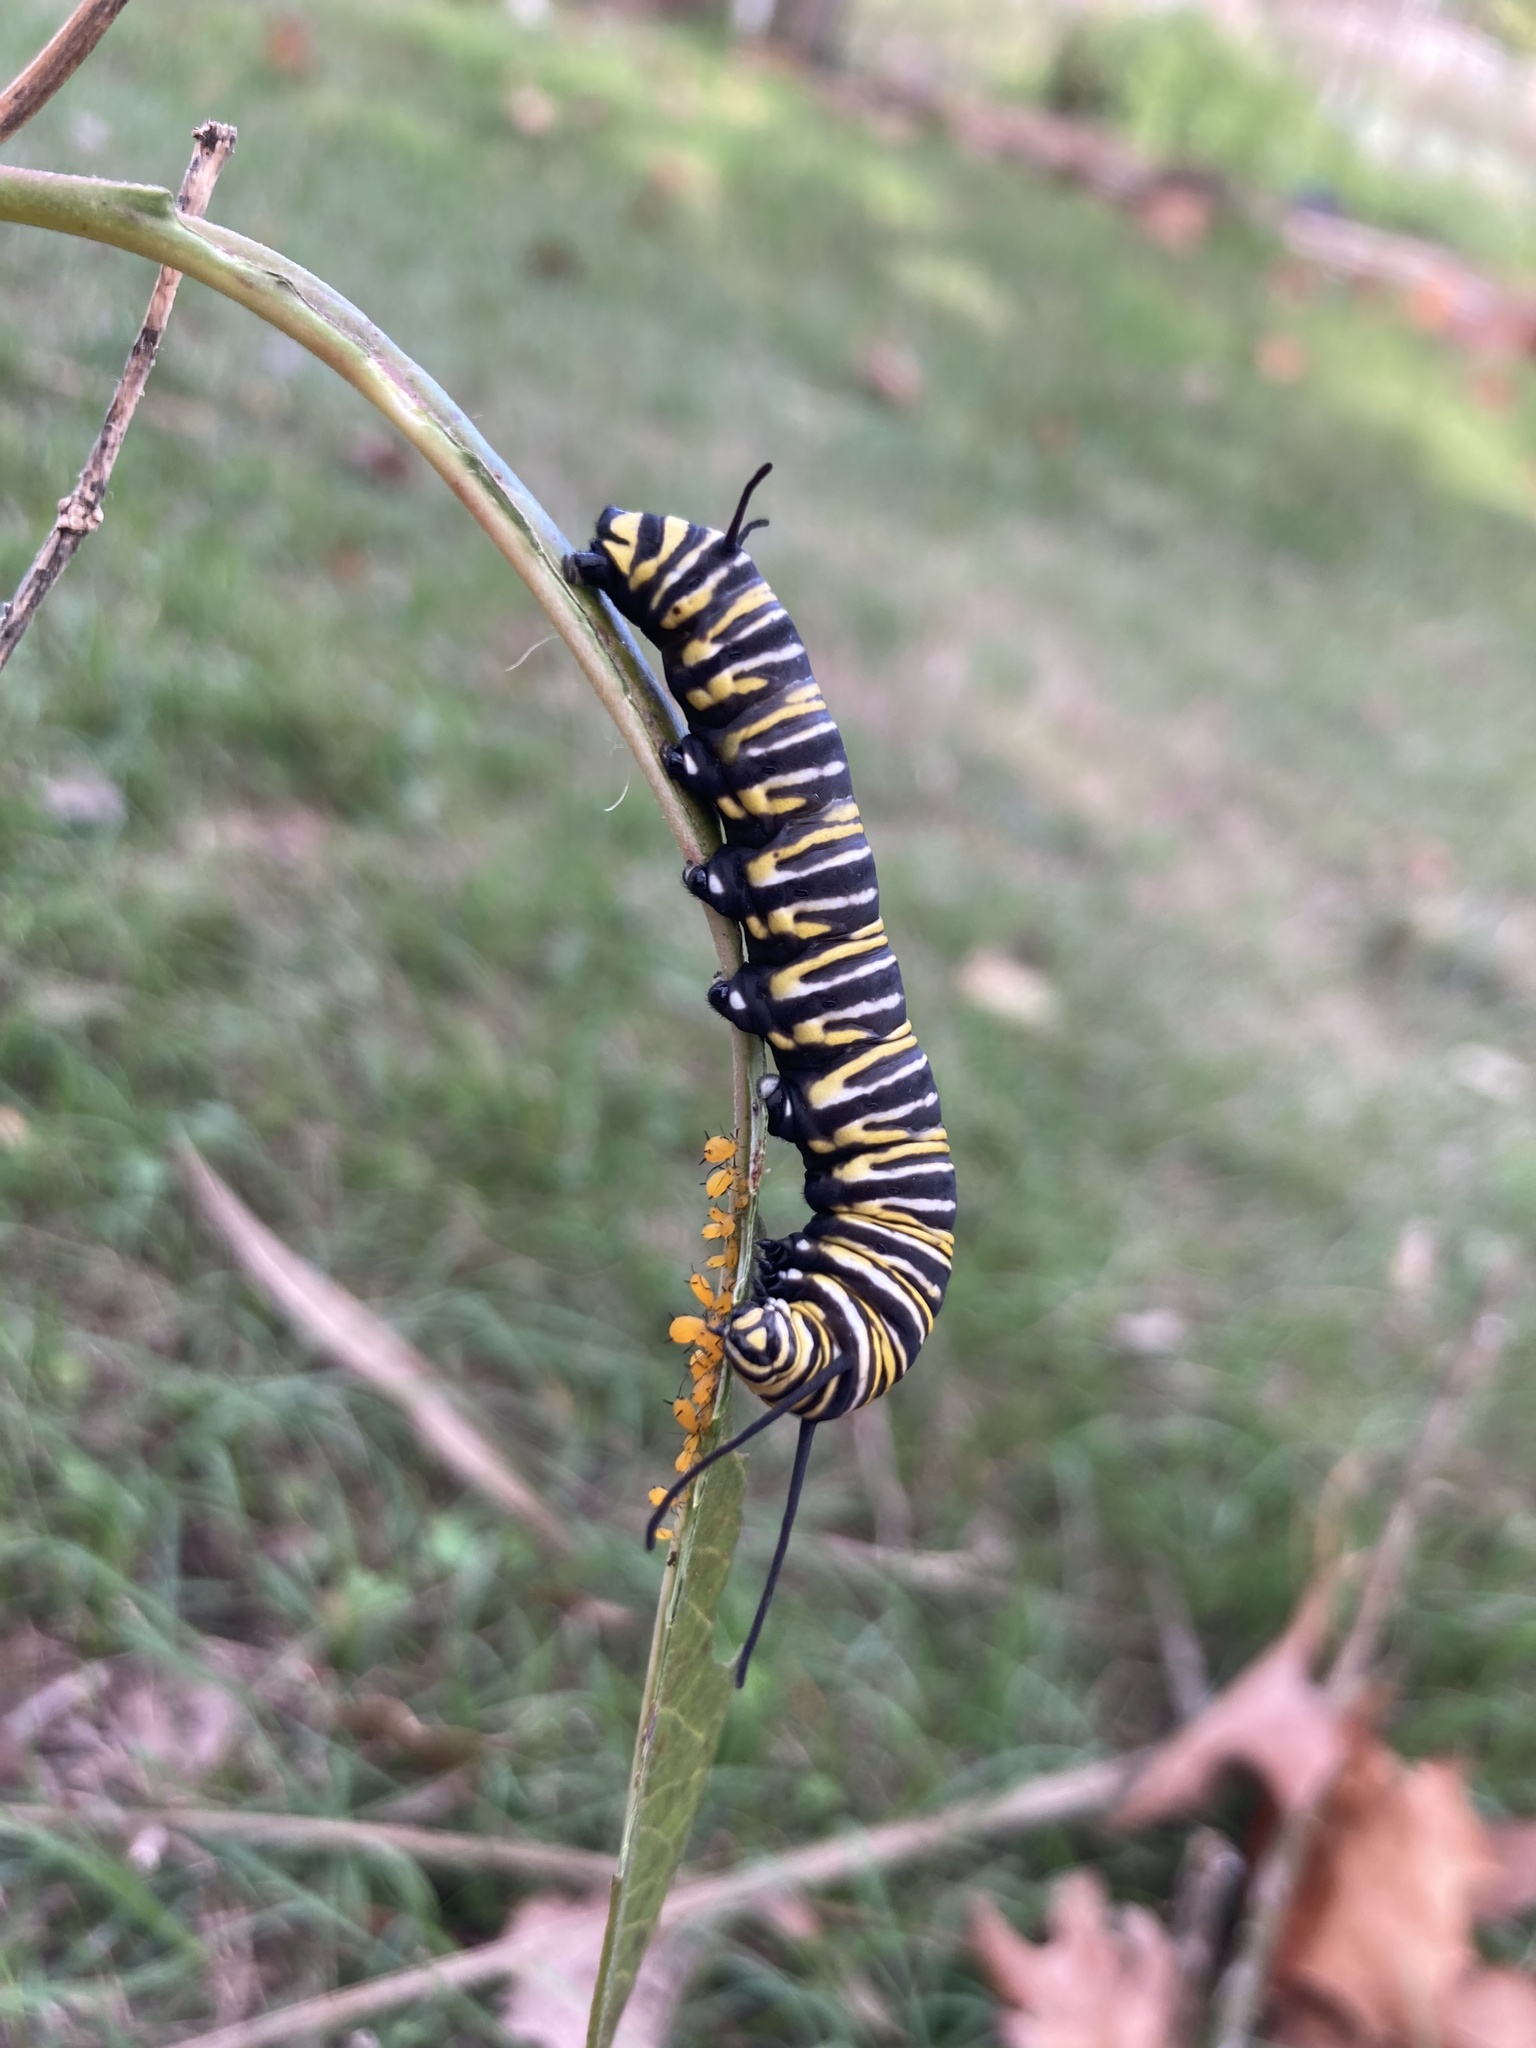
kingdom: Animalia
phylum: Arthropoda
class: Insecta
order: Lepidoptera
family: Nymphalidae
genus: Danaus
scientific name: Danaus plexippus
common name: Monarch
